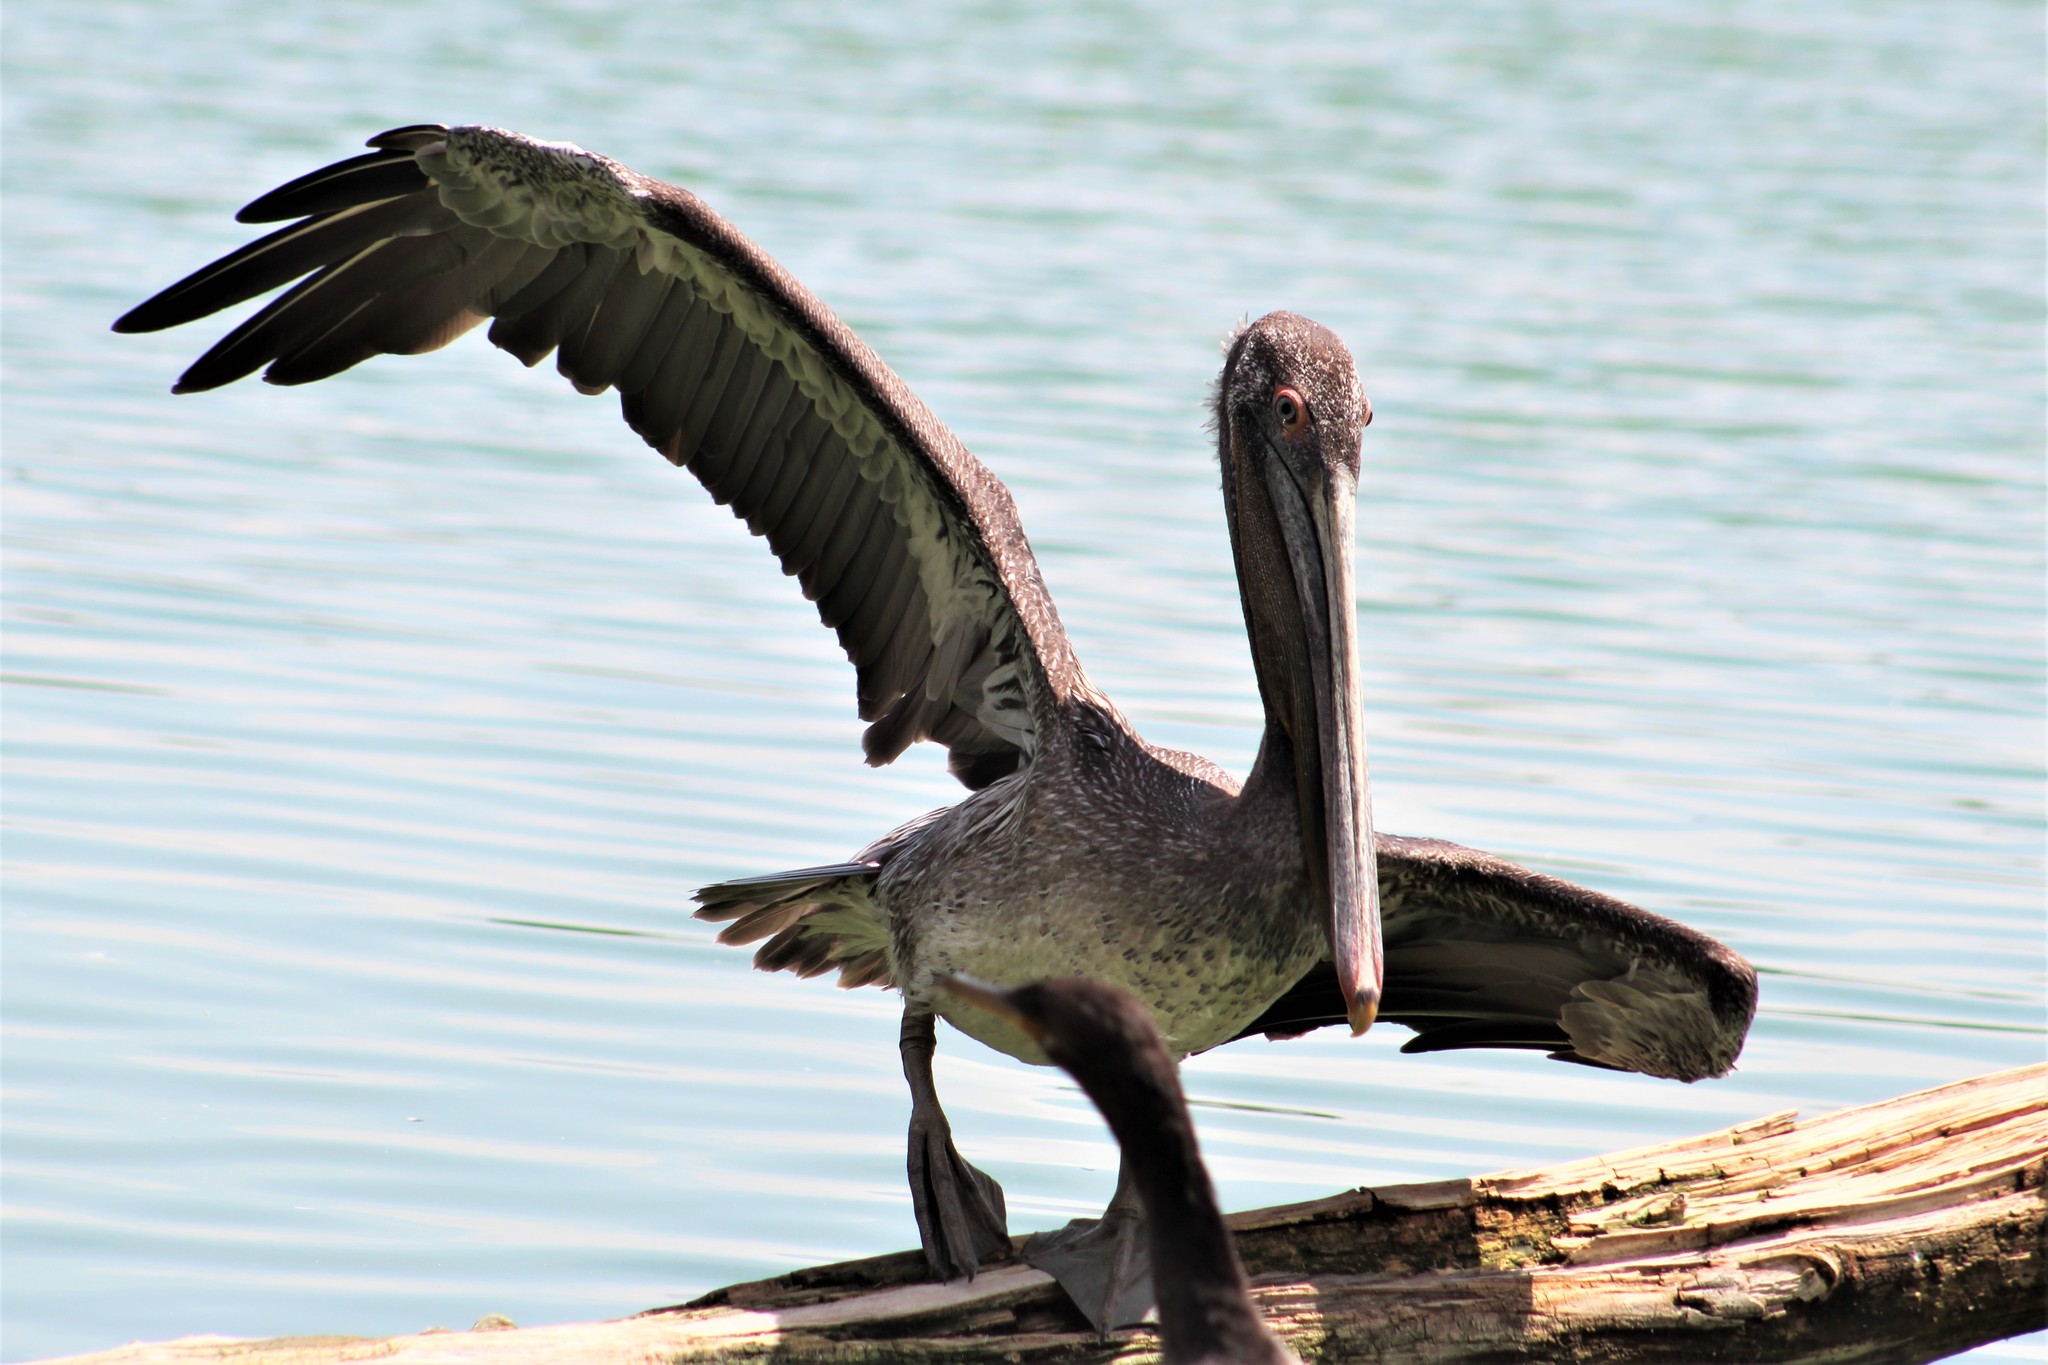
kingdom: Animalia
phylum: Chordata
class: Aves
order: Pelecaniformes
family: Pelecanidae
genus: Pelecanus
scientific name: Pelecanus occidentalis
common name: Brown pelican
